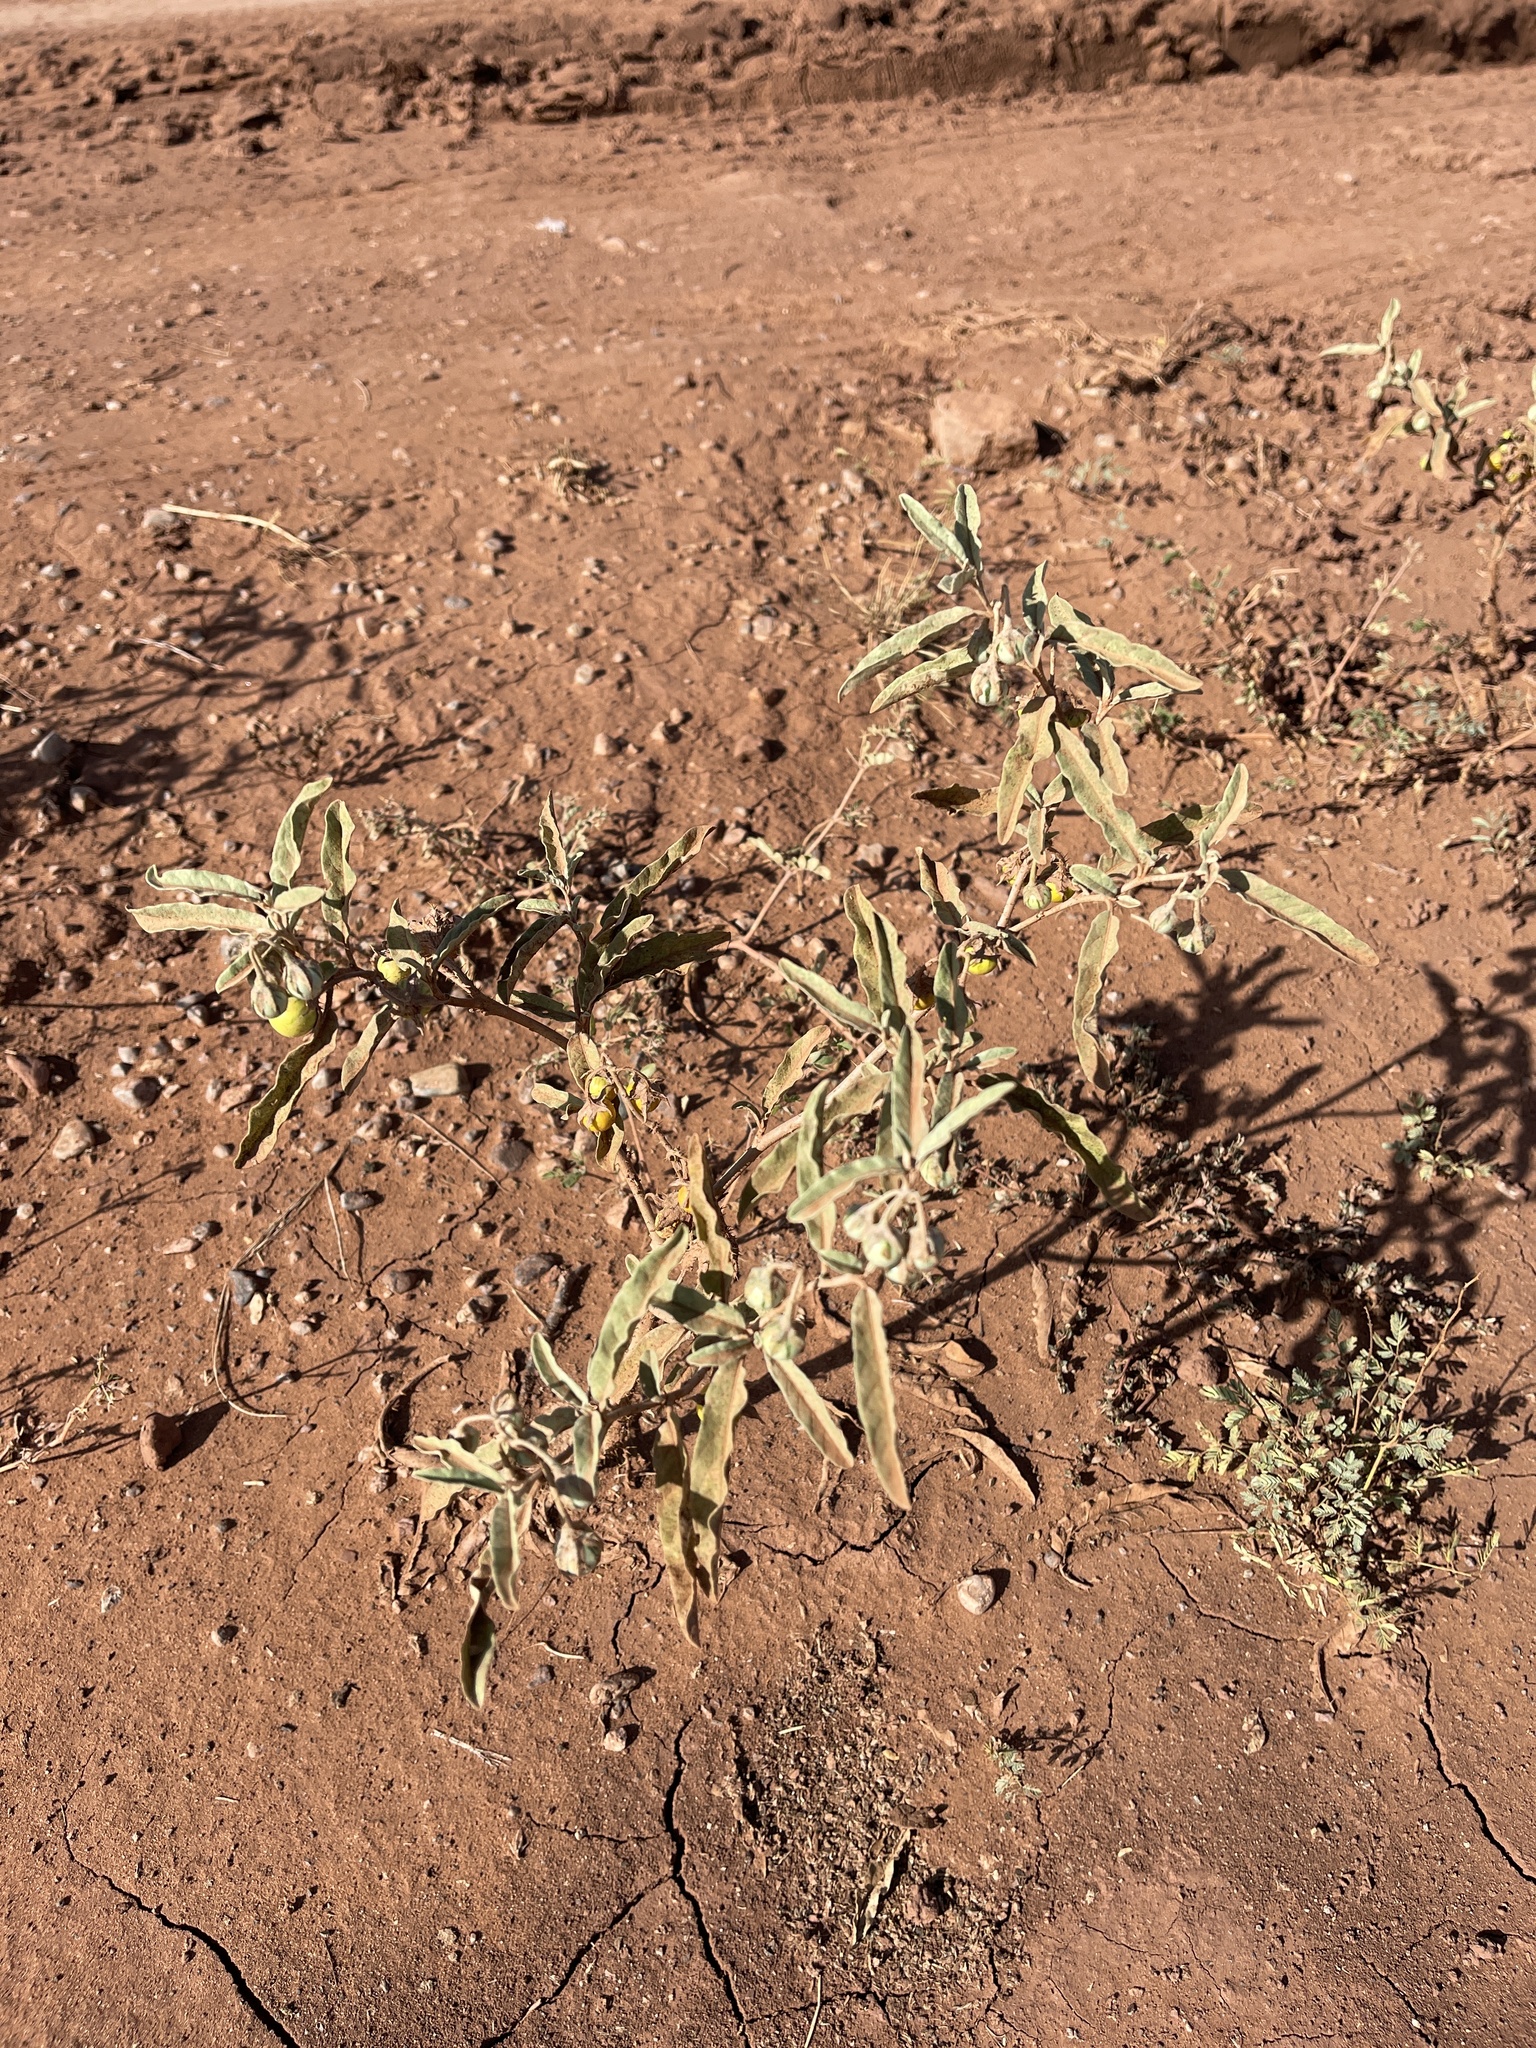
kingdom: Plantae
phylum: Tracheophyta
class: Magnoliopsida
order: Solanales
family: Solanaceae
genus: Solanum
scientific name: Solanum elaeagnifolium
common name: Silverleaf nightshade
